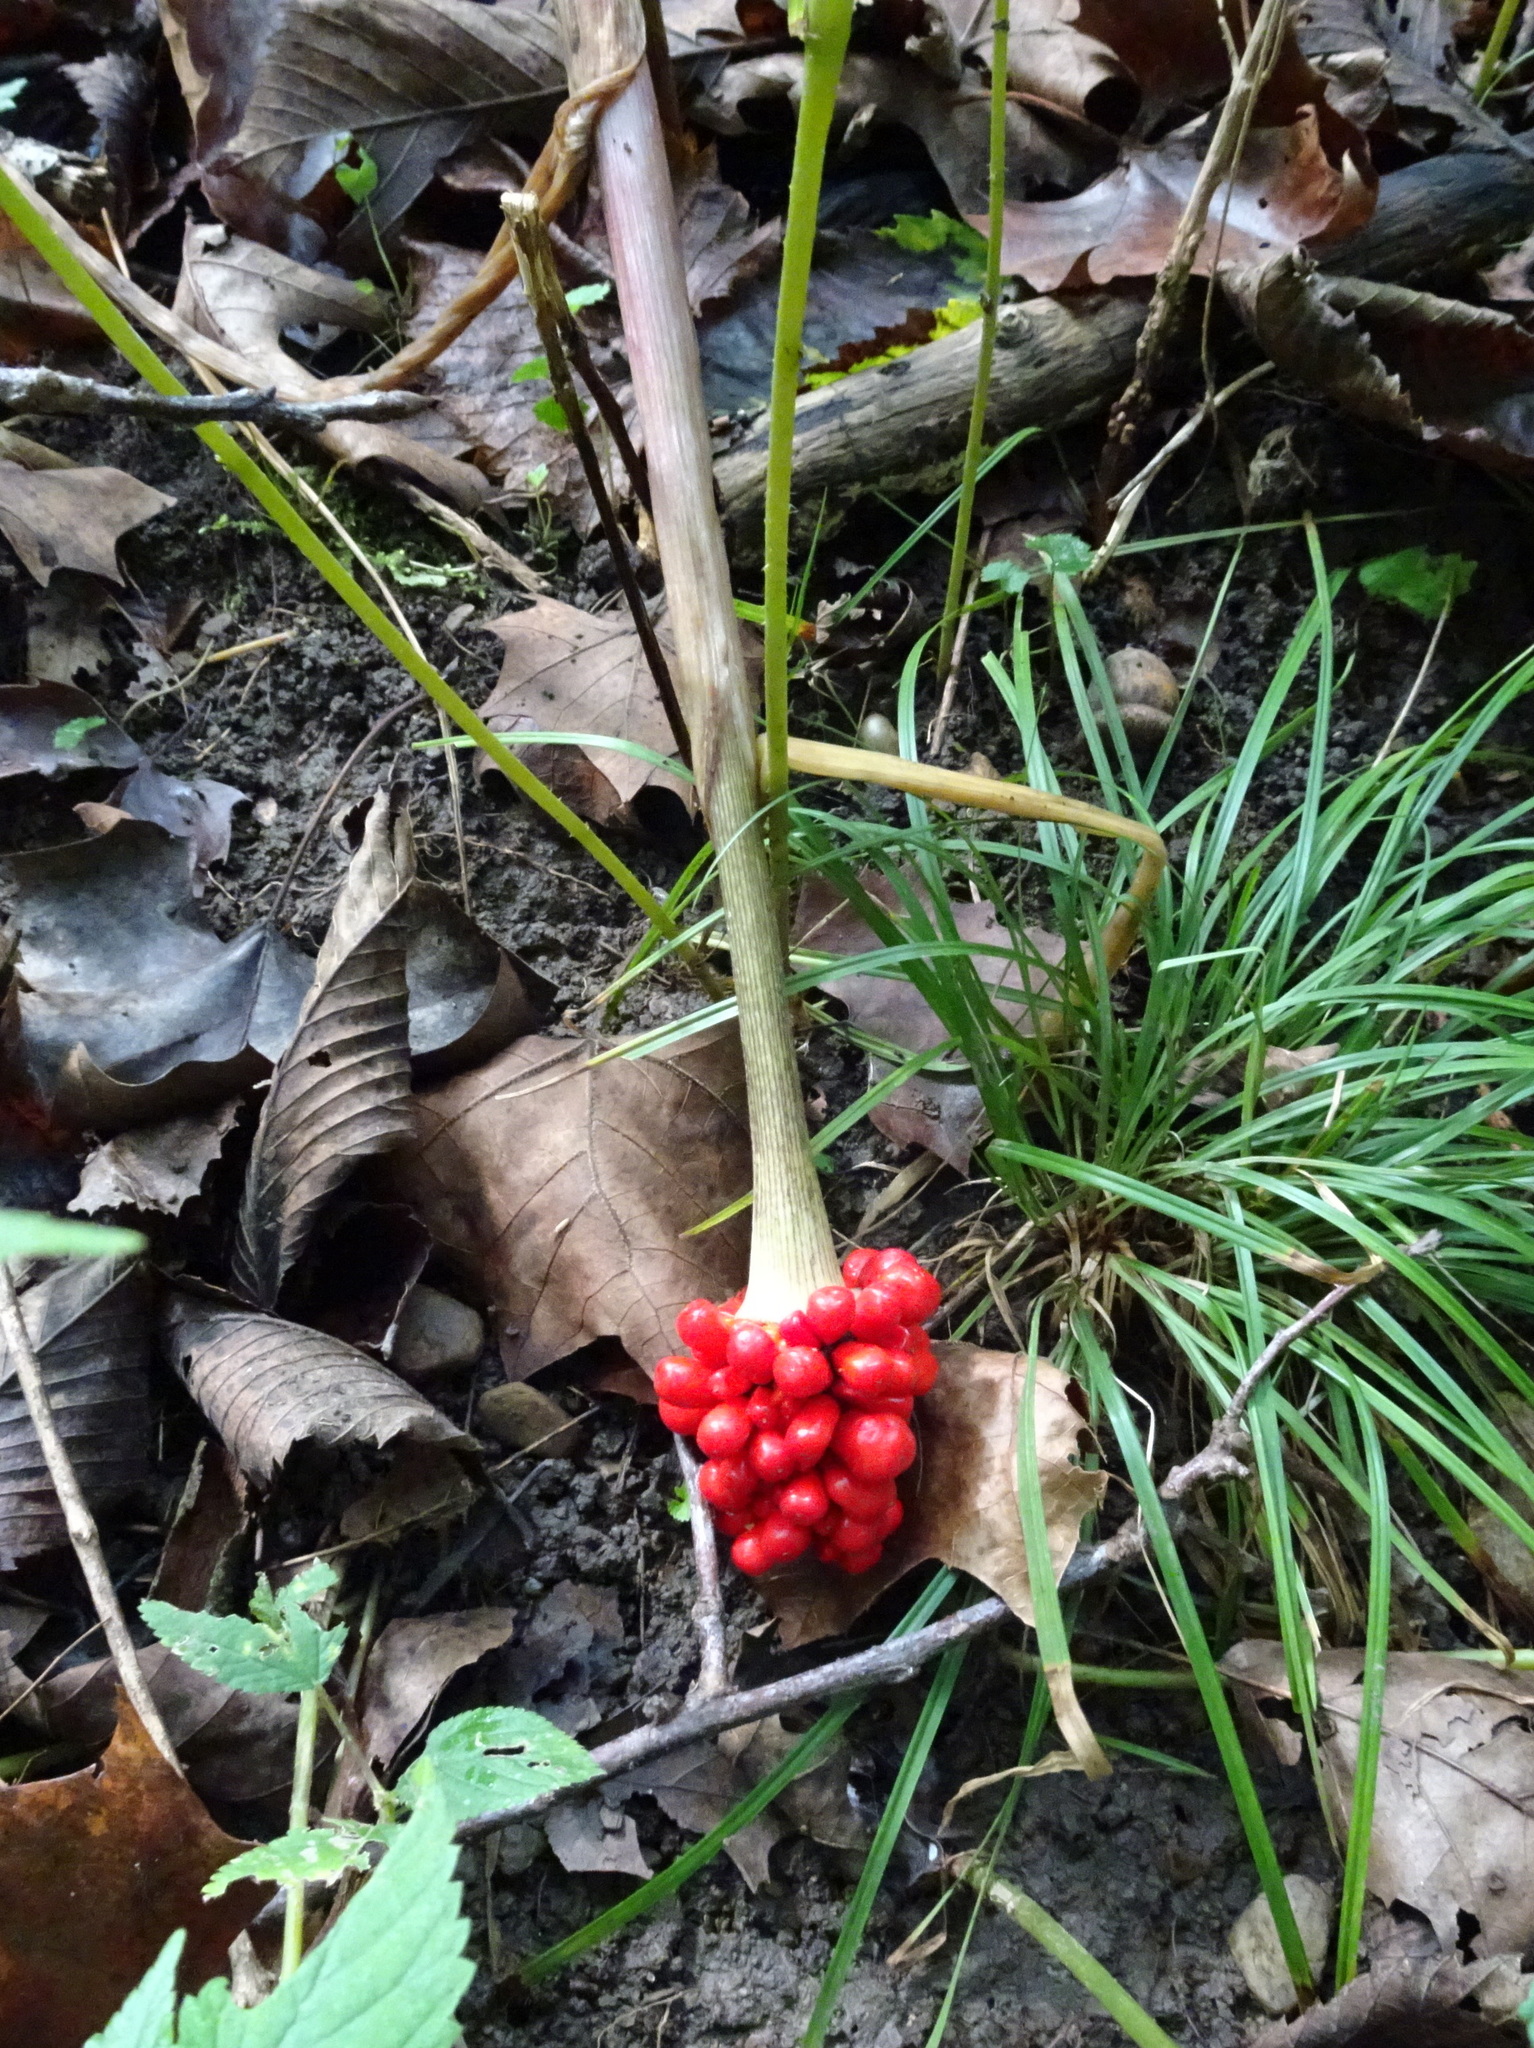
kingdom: Plantae
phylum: Tracheophyta
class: Liliopsida
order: Alismatales
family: Araceae
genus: Arisaema
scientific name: Arisaema triphyllum
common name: Jack-in-the-pulpit
